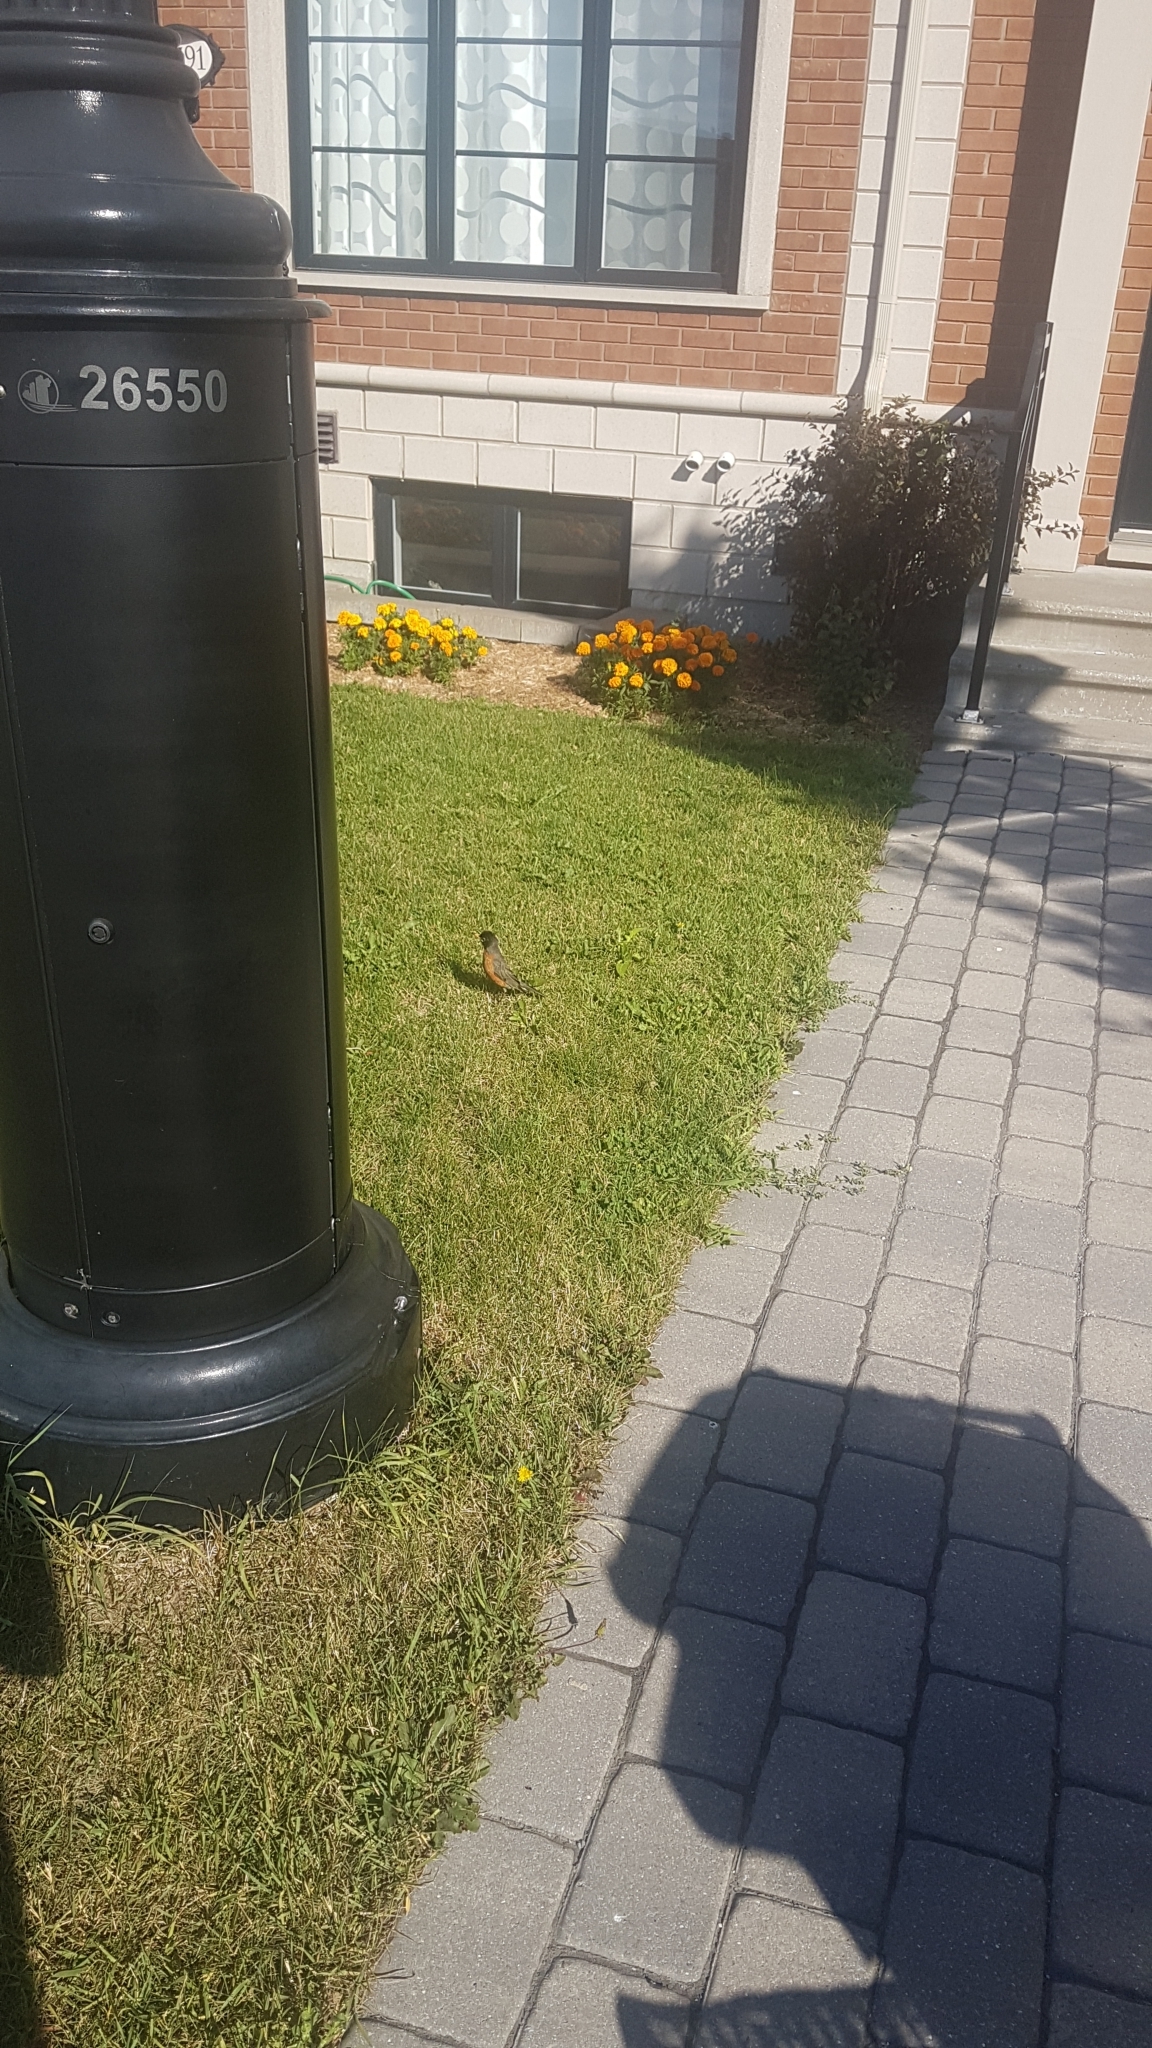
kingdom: Animalia
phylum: Chordata
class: Aves
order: Passeriformes
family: Turdidae
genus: Turdus
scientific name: Turdus migratorius
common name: American robin
